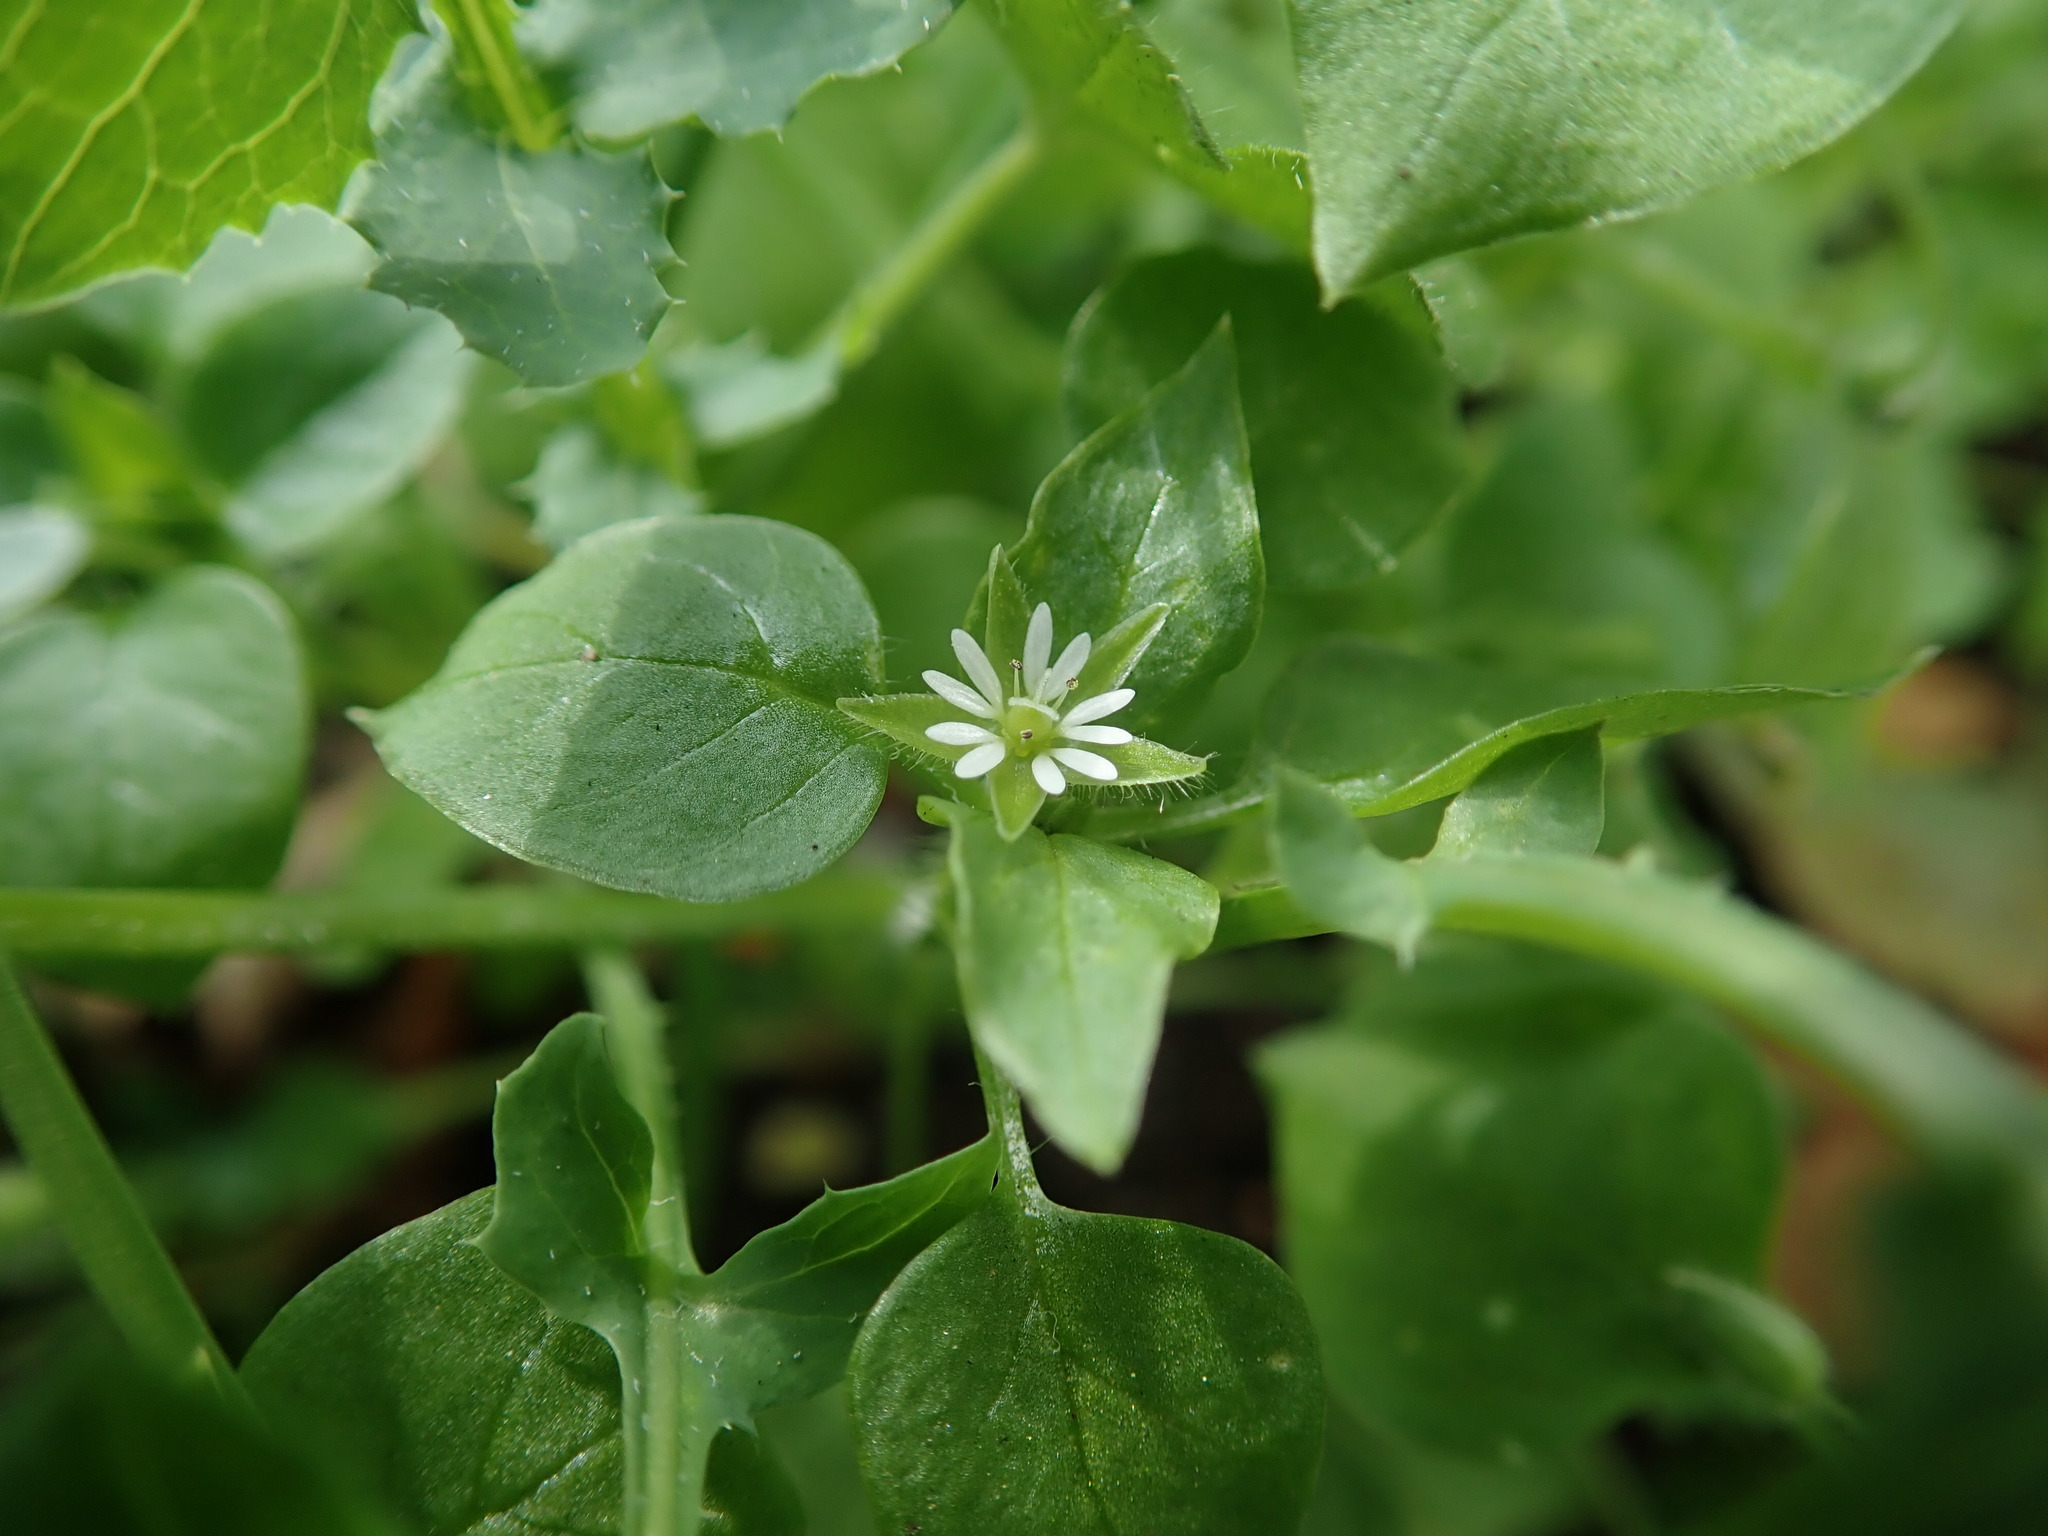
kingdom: Plantae
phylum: Tracheophyta
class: Magnoliopsida
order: Caryophyllales
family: Caryophyllaceae
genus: Stellaria
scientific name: Stellaria media
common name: Common chickweed
